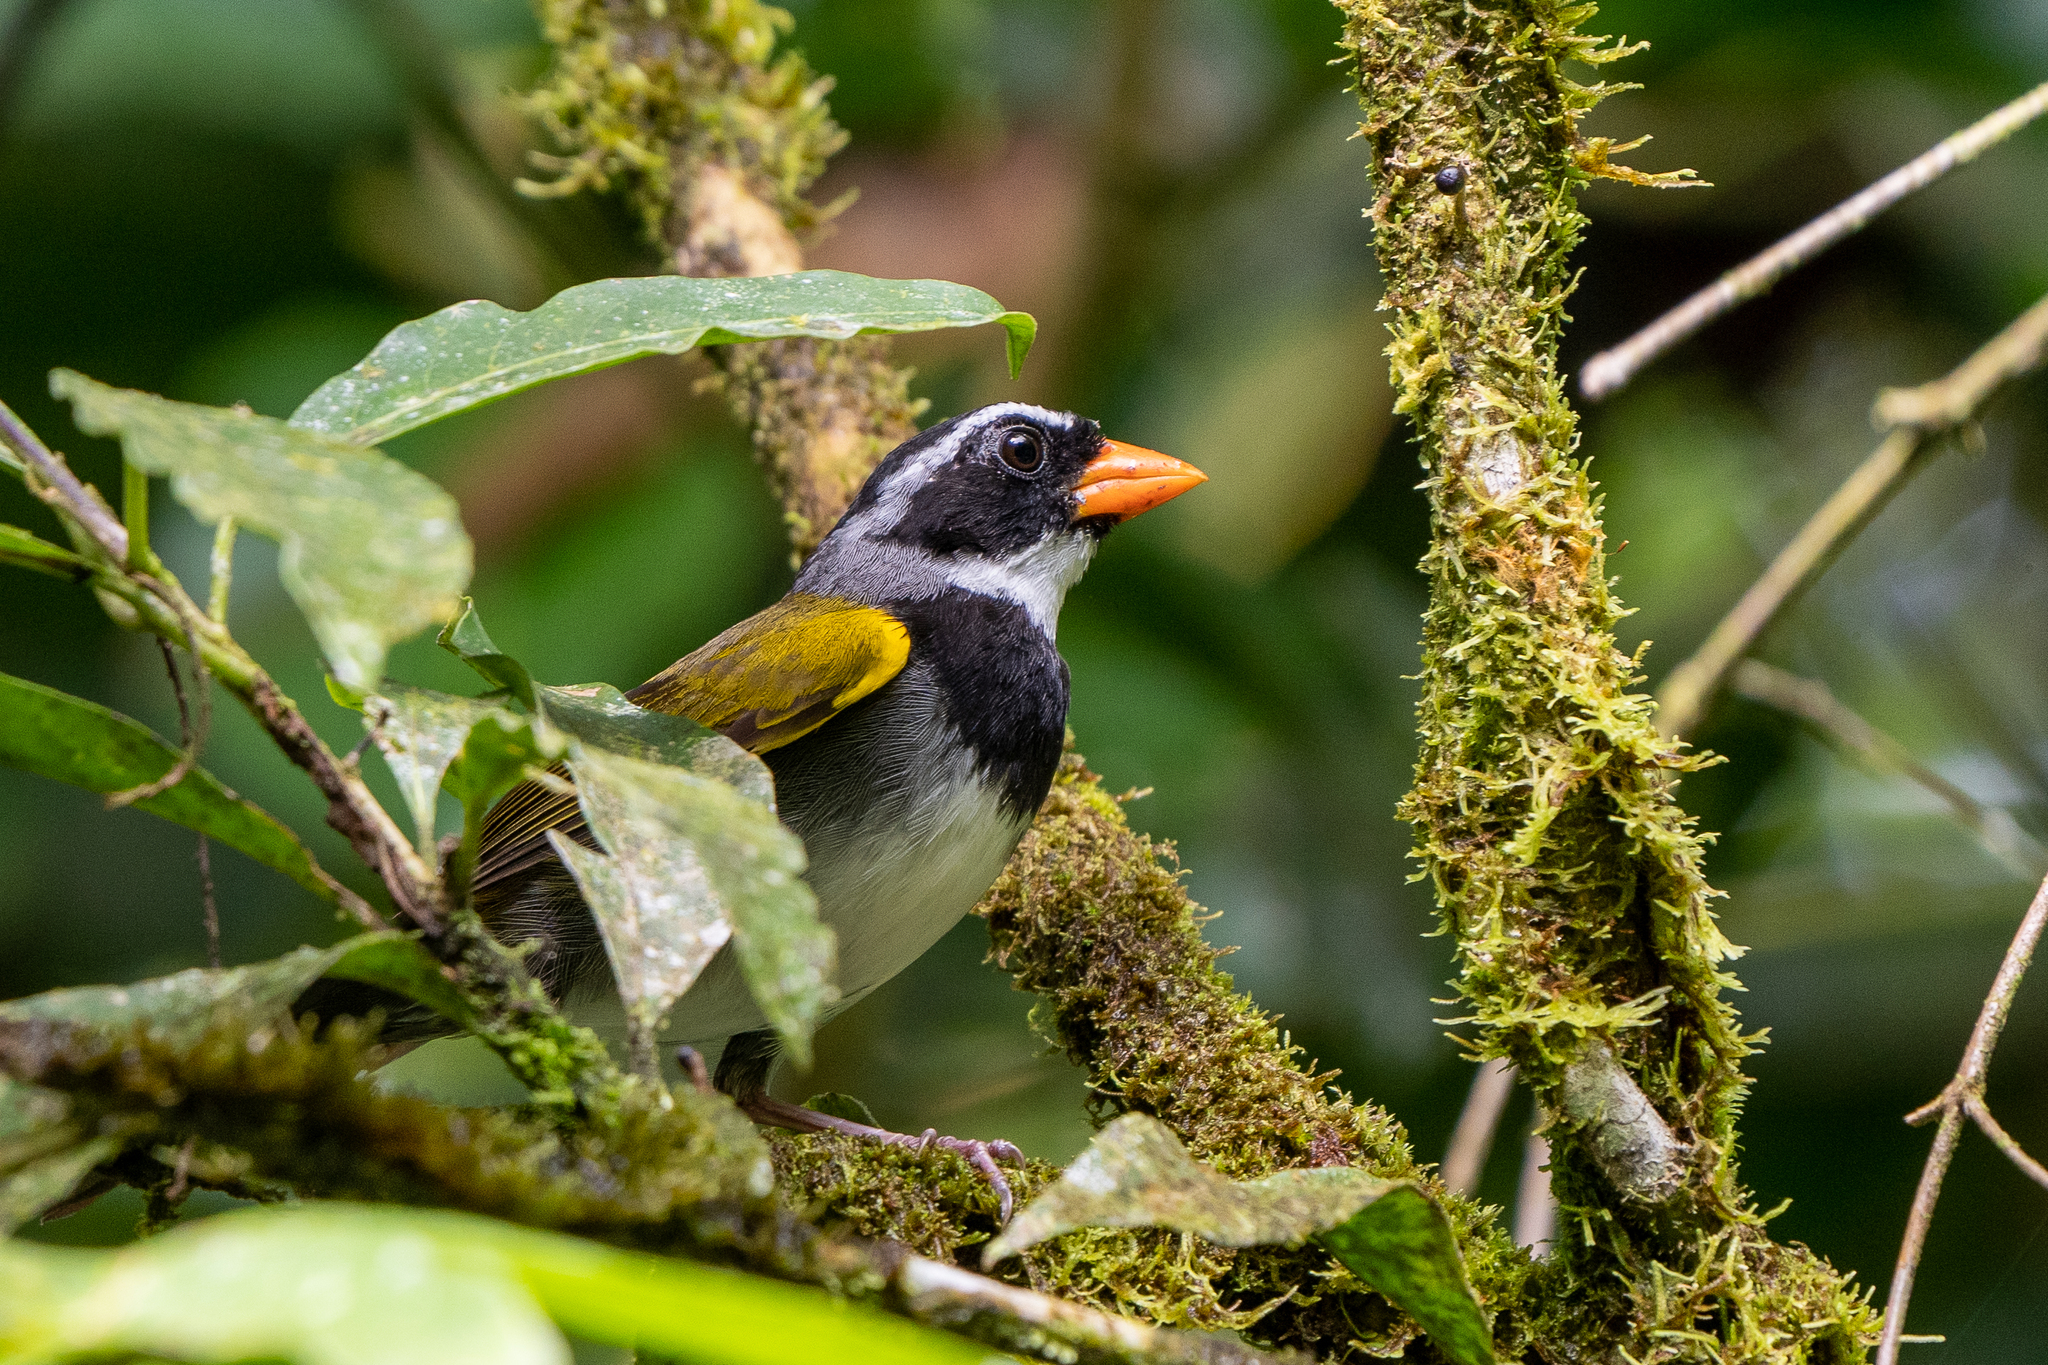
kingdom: Animalia
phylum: Chordata
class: Aves
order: Passeriformes
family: Passerellidae
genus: Arremon
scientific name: Arremon aurantiirostris
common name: Orange-billed sparrow
